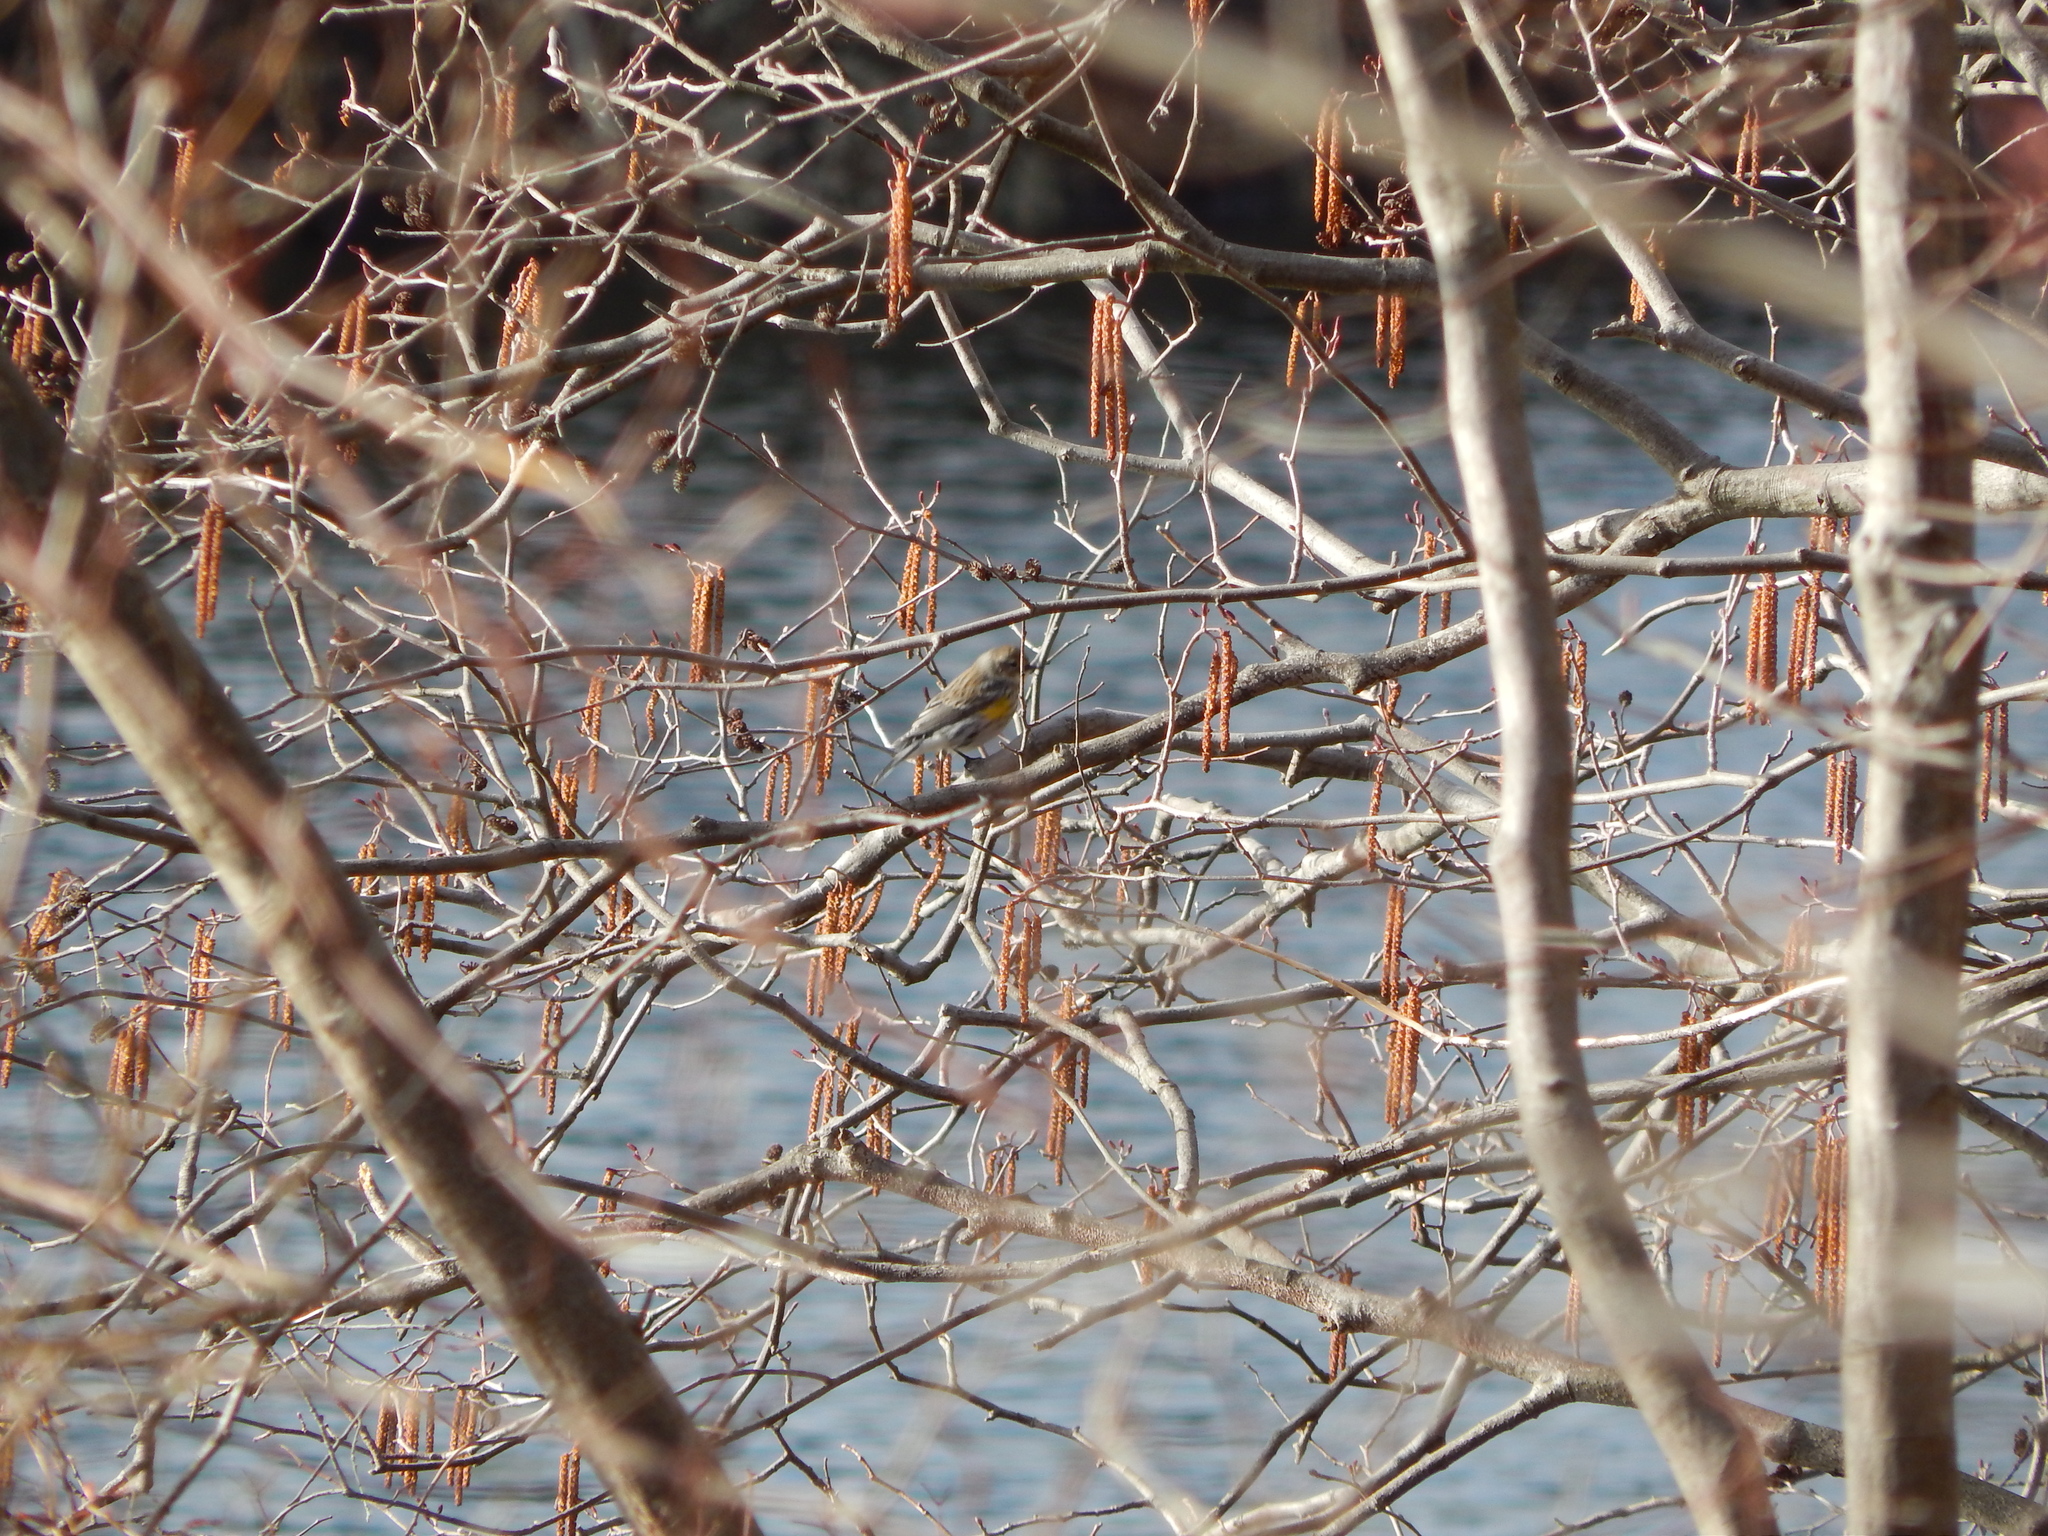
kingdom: Animalia
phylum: Chordata
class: Aves
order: Passeriformes
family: Parulidae
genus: Setophaga
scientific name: Setophaga coronata
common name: Myrtle warbler
